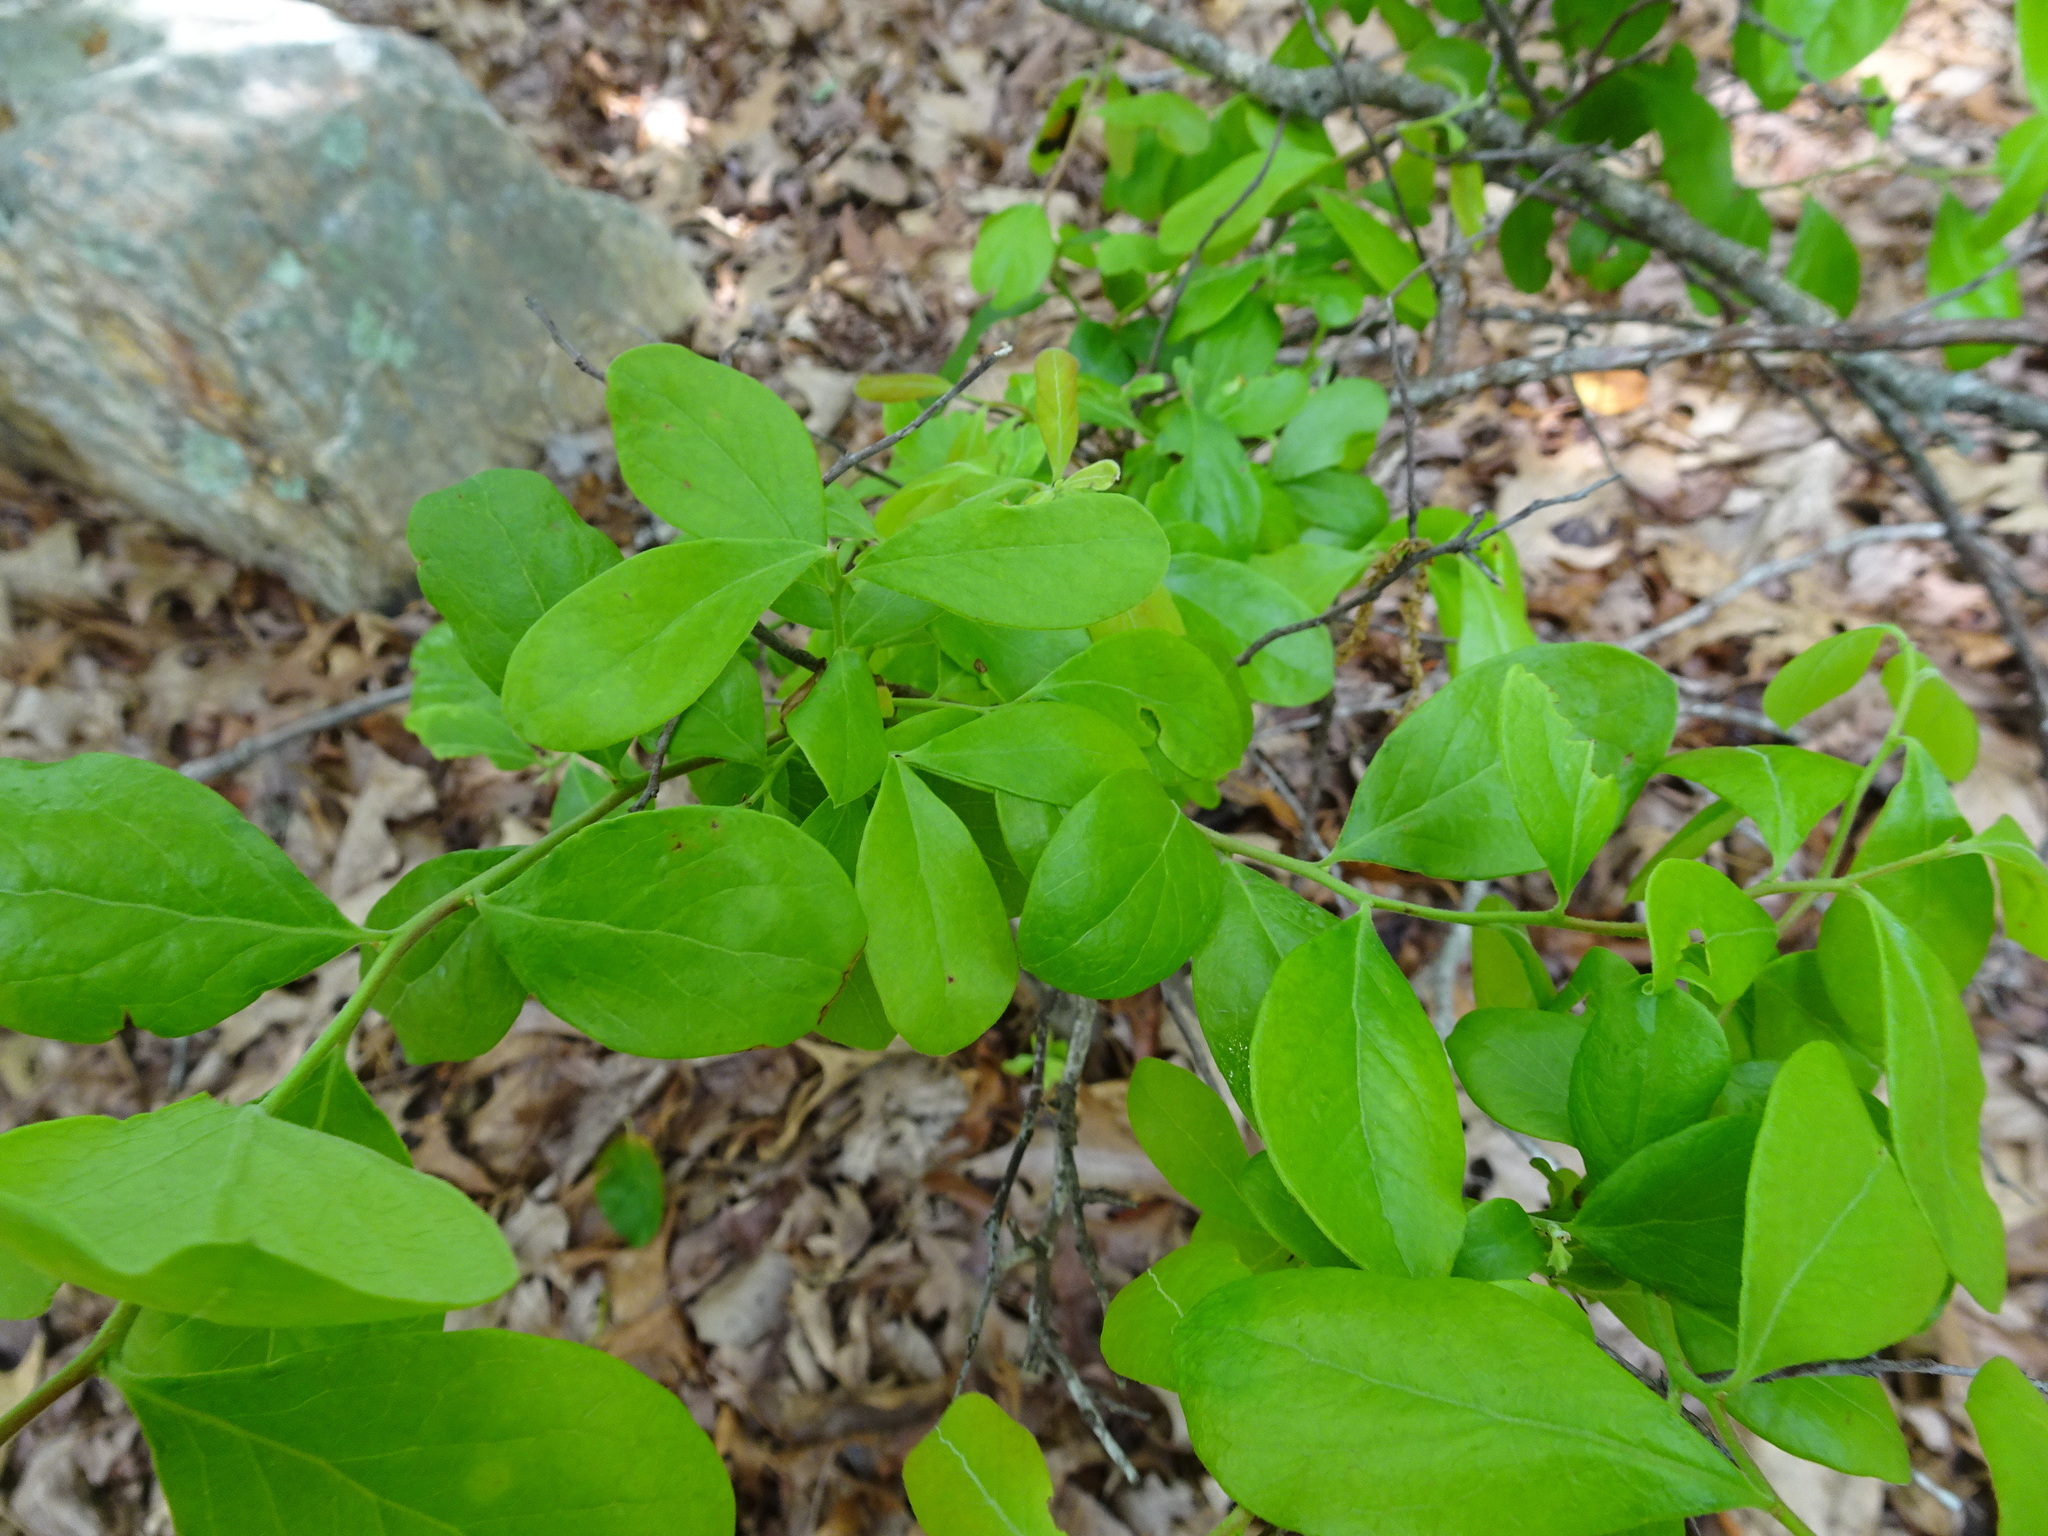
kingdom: Plantae
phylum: Tracheophyta
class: Magnoliopsida
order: Ericales
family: Ericaceae
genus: Vaccinium
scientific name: Vaccinium arboreum
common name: Farkleberry
